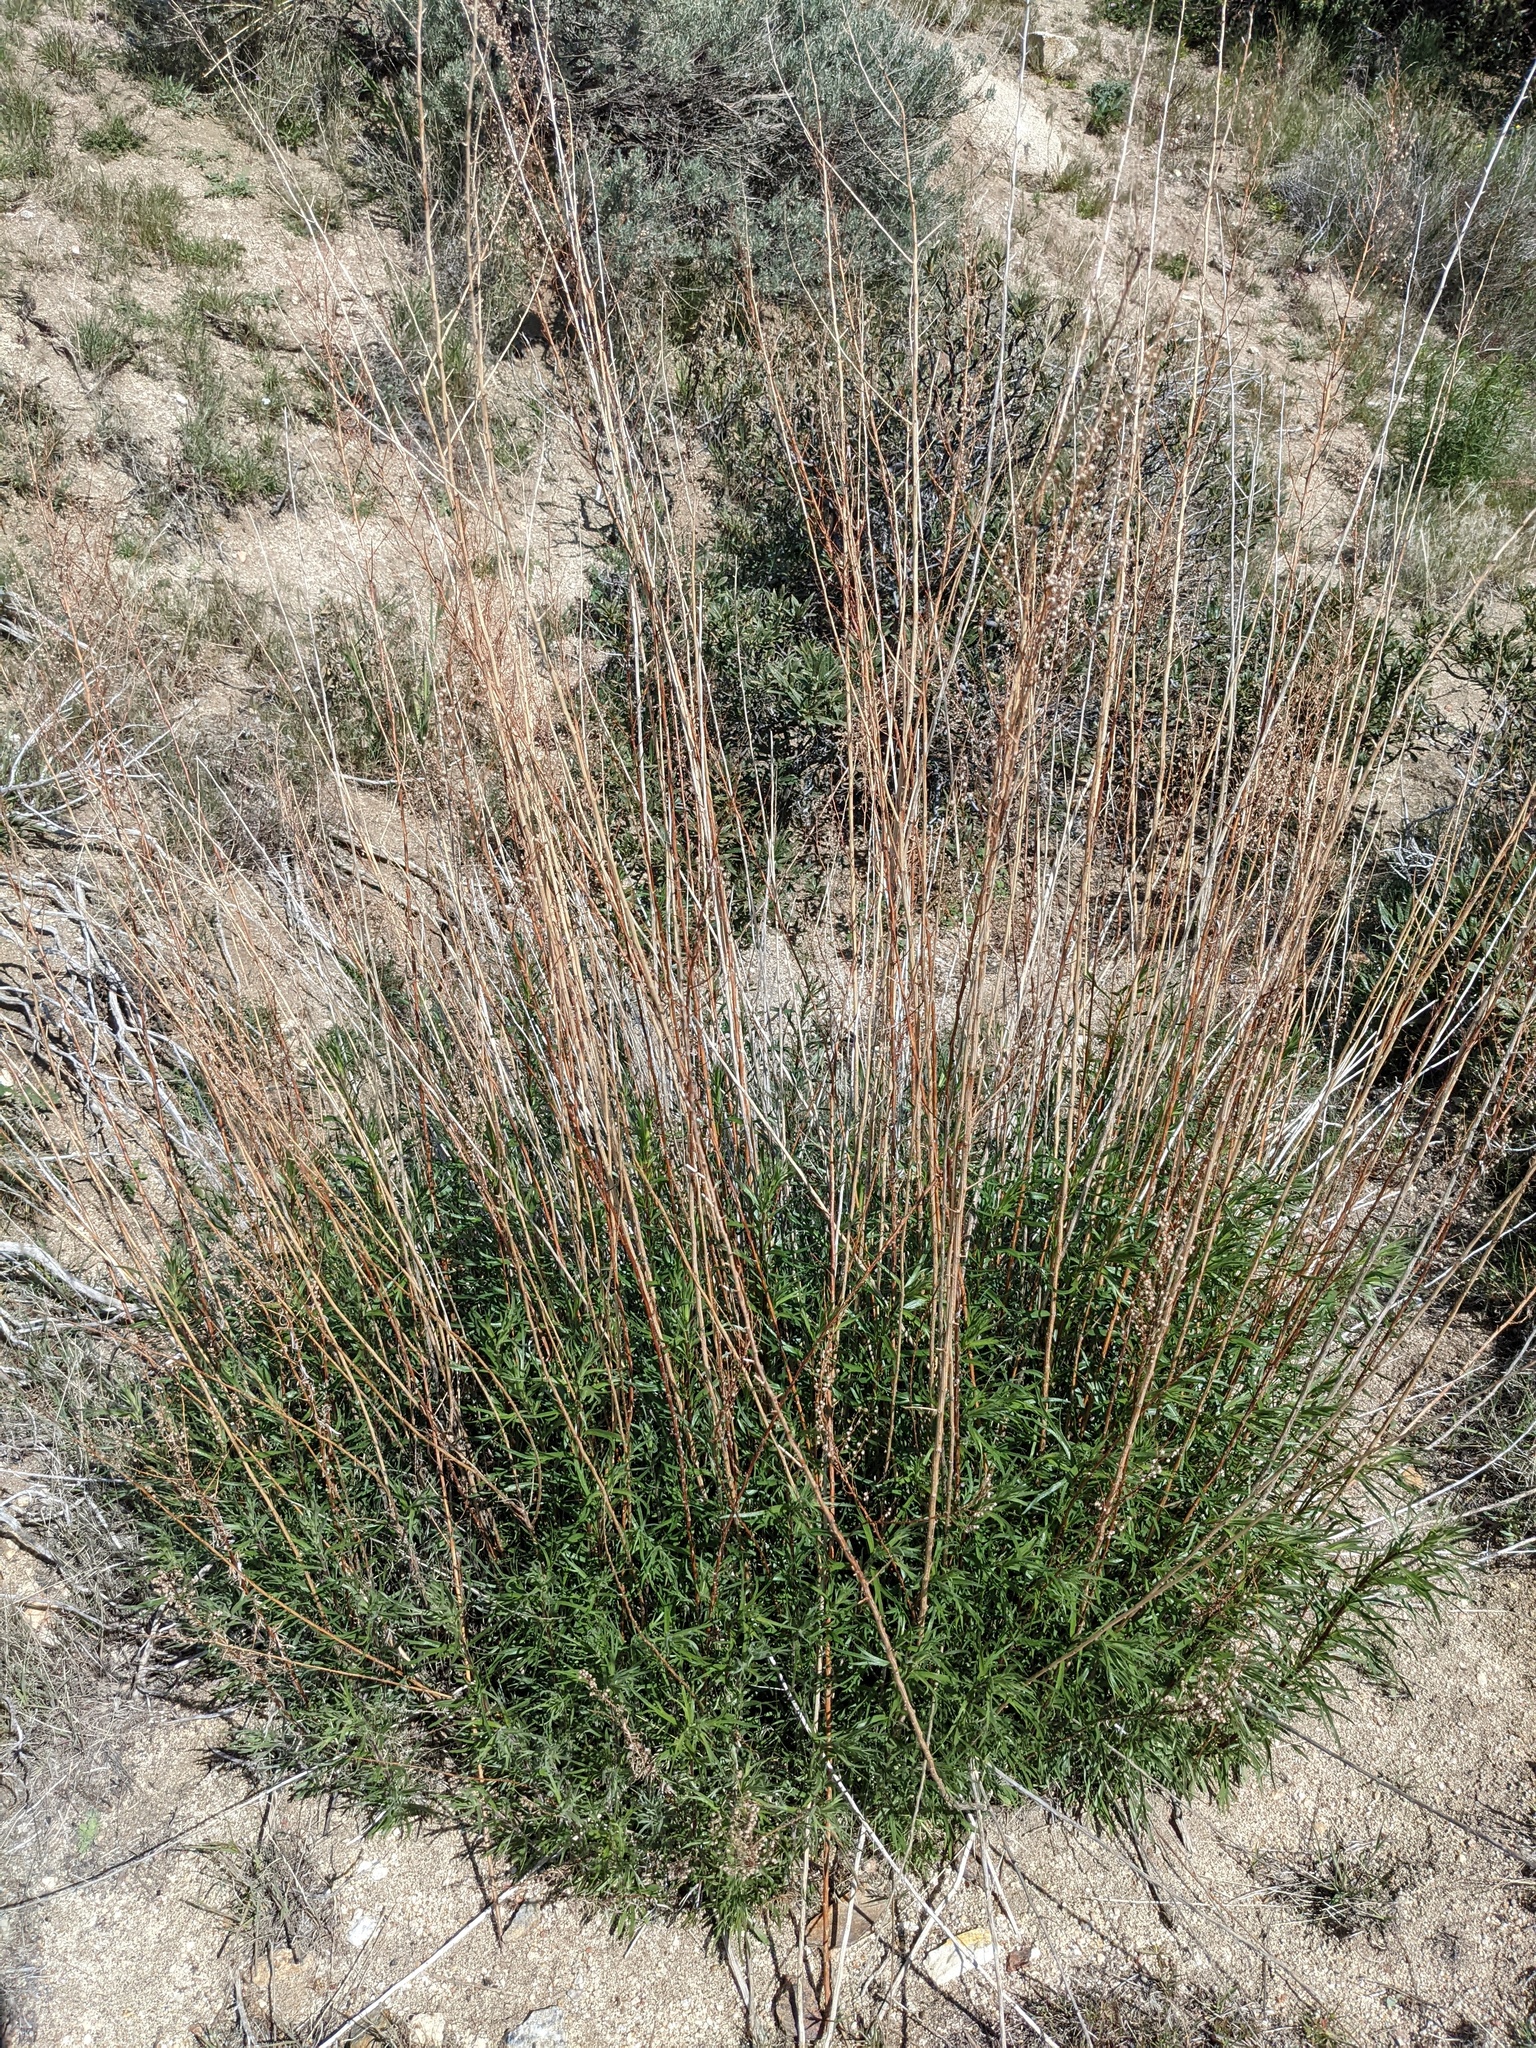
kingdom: Plantae
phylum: Tracheophyta
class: Magnoliopsida
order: Asterales
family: Asteraceae
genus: Artemisia
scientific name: Artemisia dracunculus
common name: Tarragon
